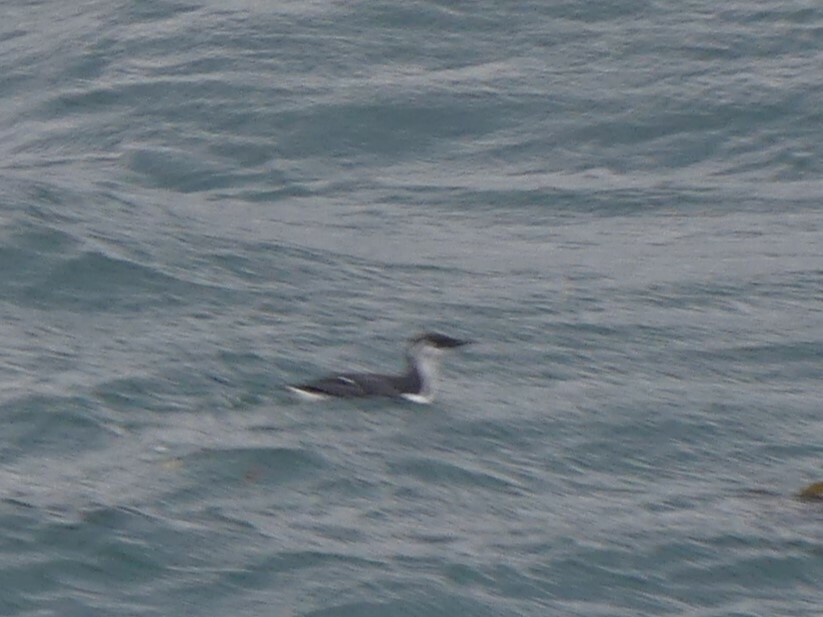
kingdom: Animalia
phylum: Chordata
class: Aves
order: Charadriiformes
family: Alcidae
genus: Uria
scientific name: Uria aalge
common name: Common murre
